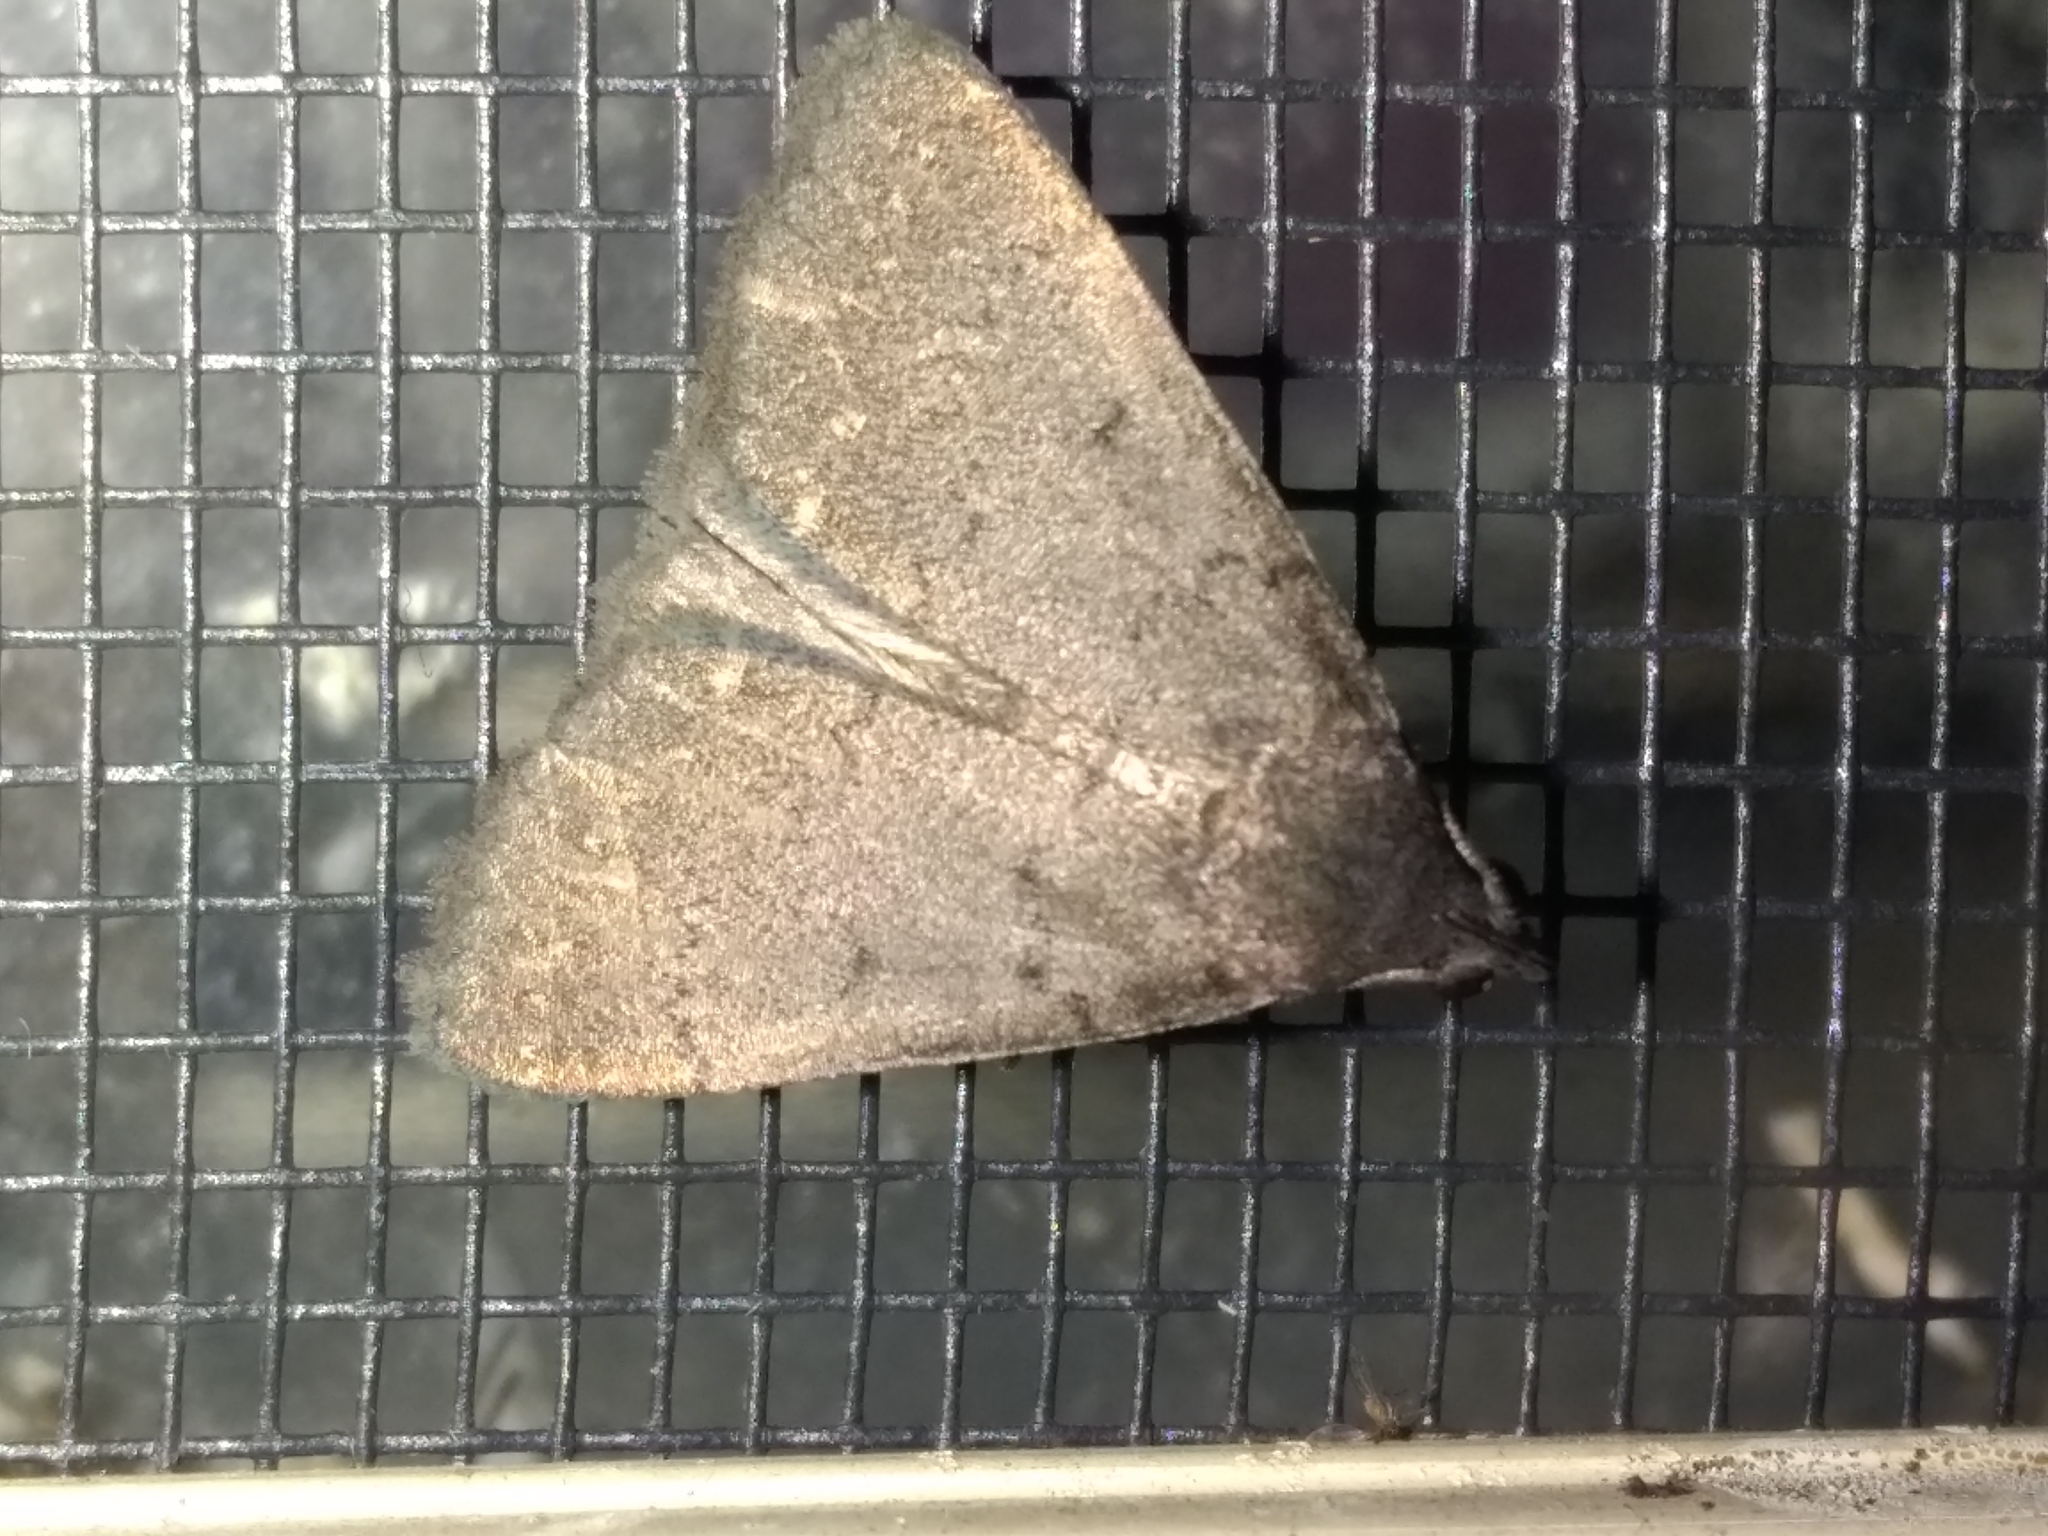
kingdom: Animalia
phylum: Arthropoda
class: Insecta
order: Lepidoptera
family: Erebidae
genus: Simplicia
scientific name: Simplicia cornicalis
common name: Tiki hut litter moth
